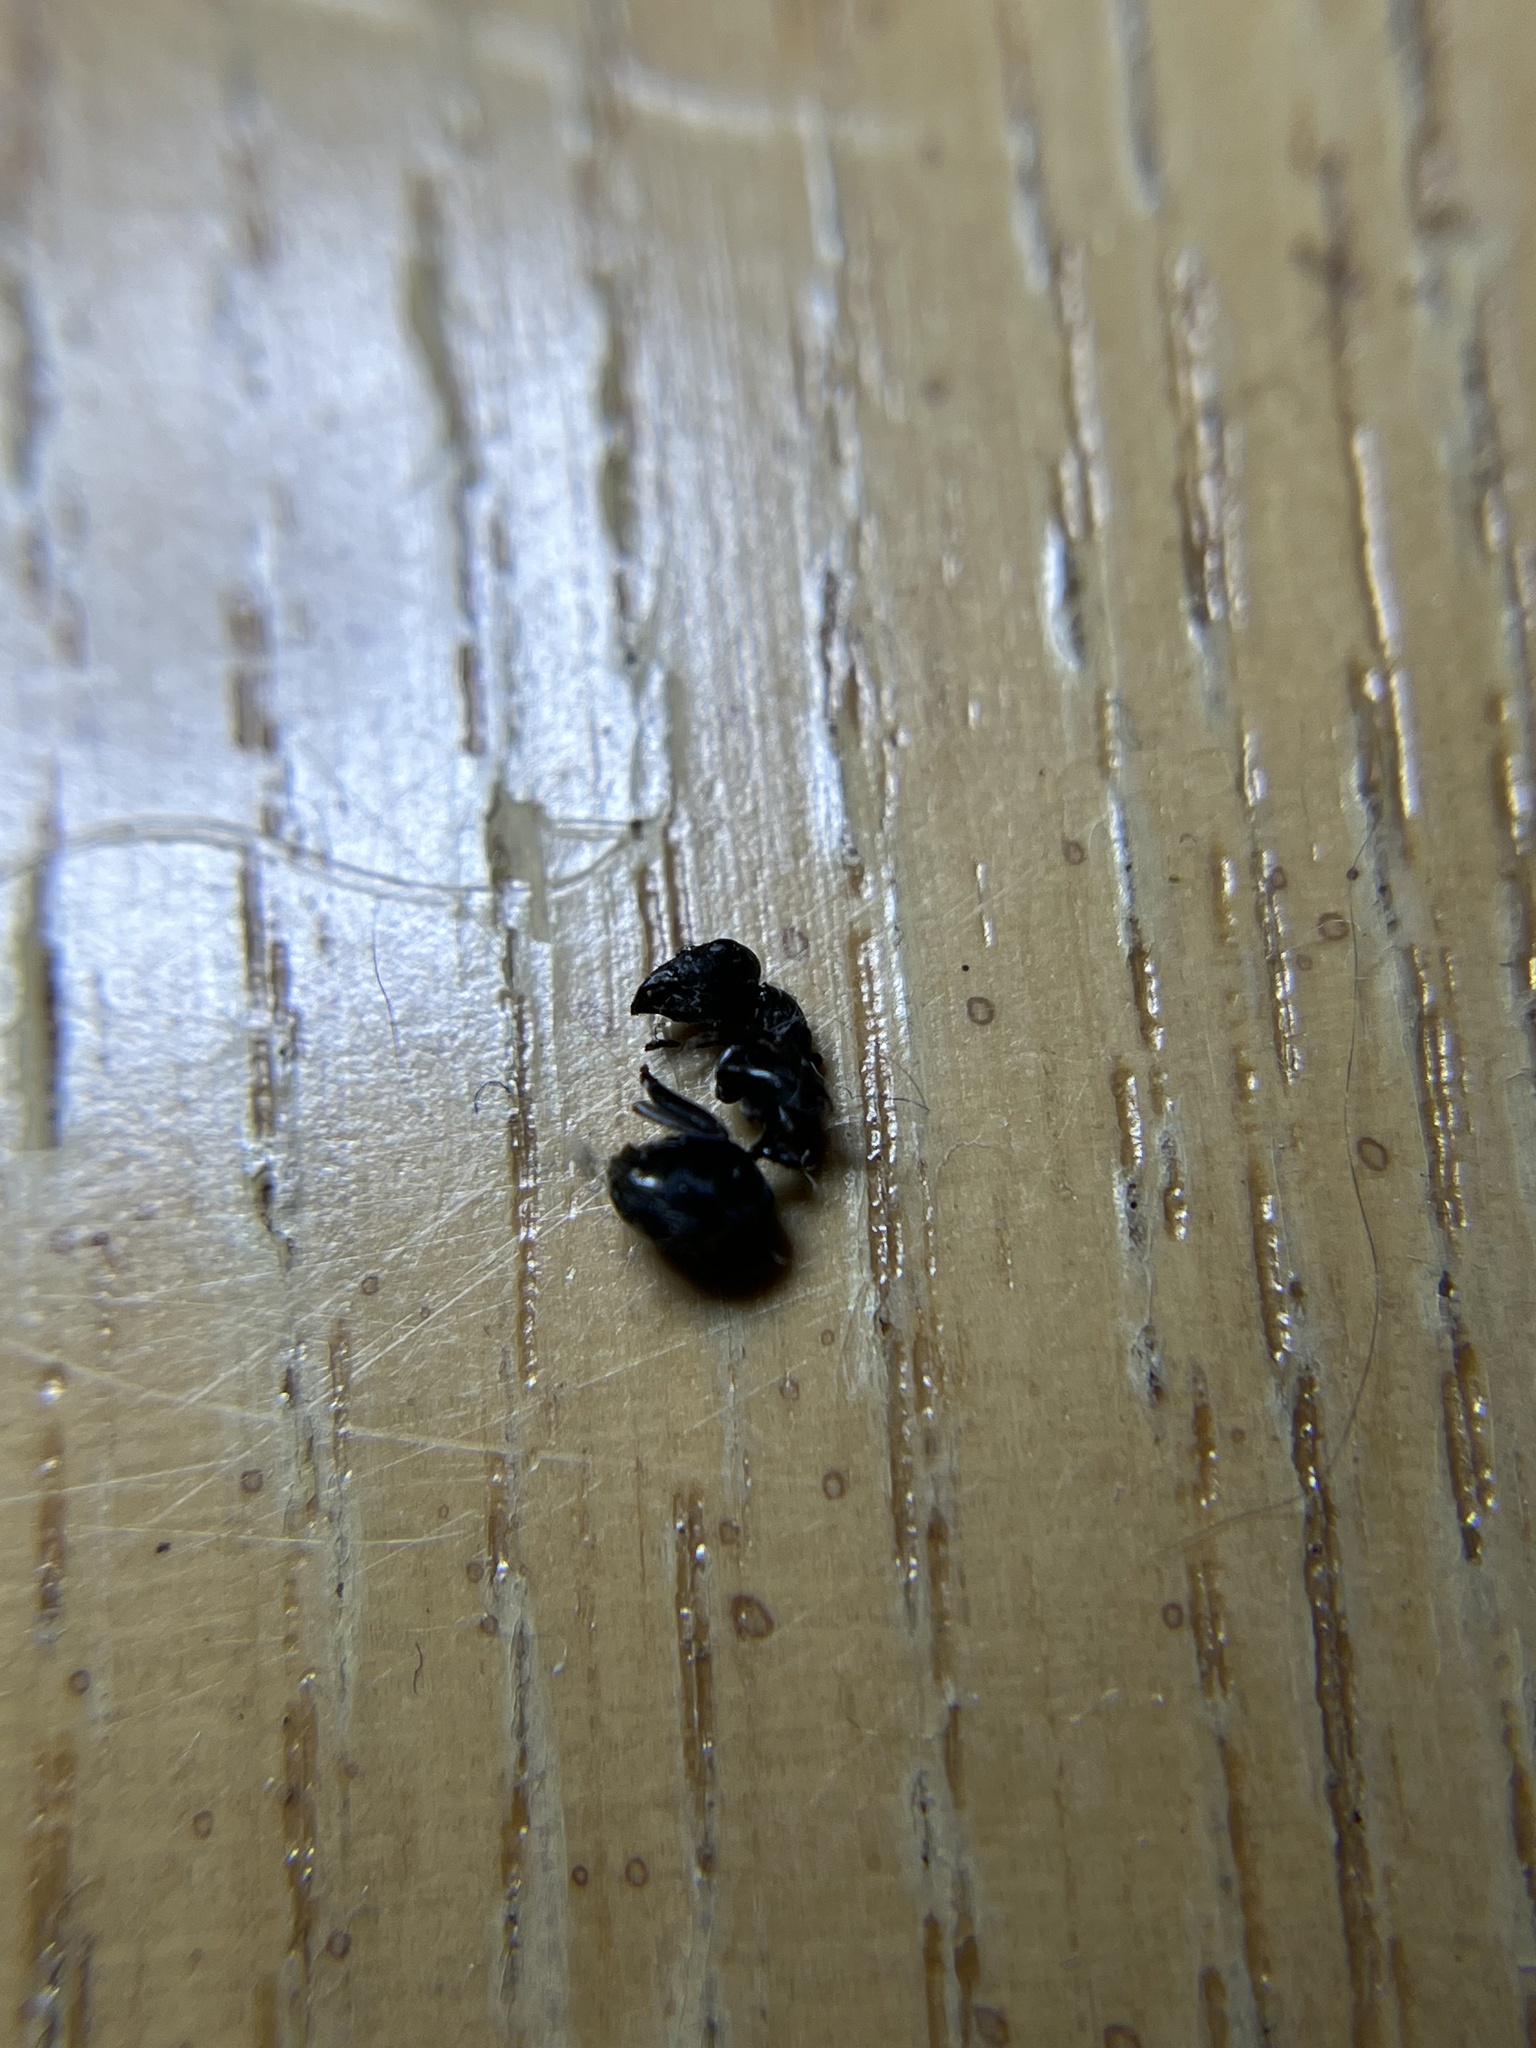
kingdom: Animalia
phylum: Arthropoda
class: Insecta
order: Hymenoptera
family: Formicidae
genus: Camponotus
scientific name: Camponotus pennsylvanicus
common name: Black carpenter ant
